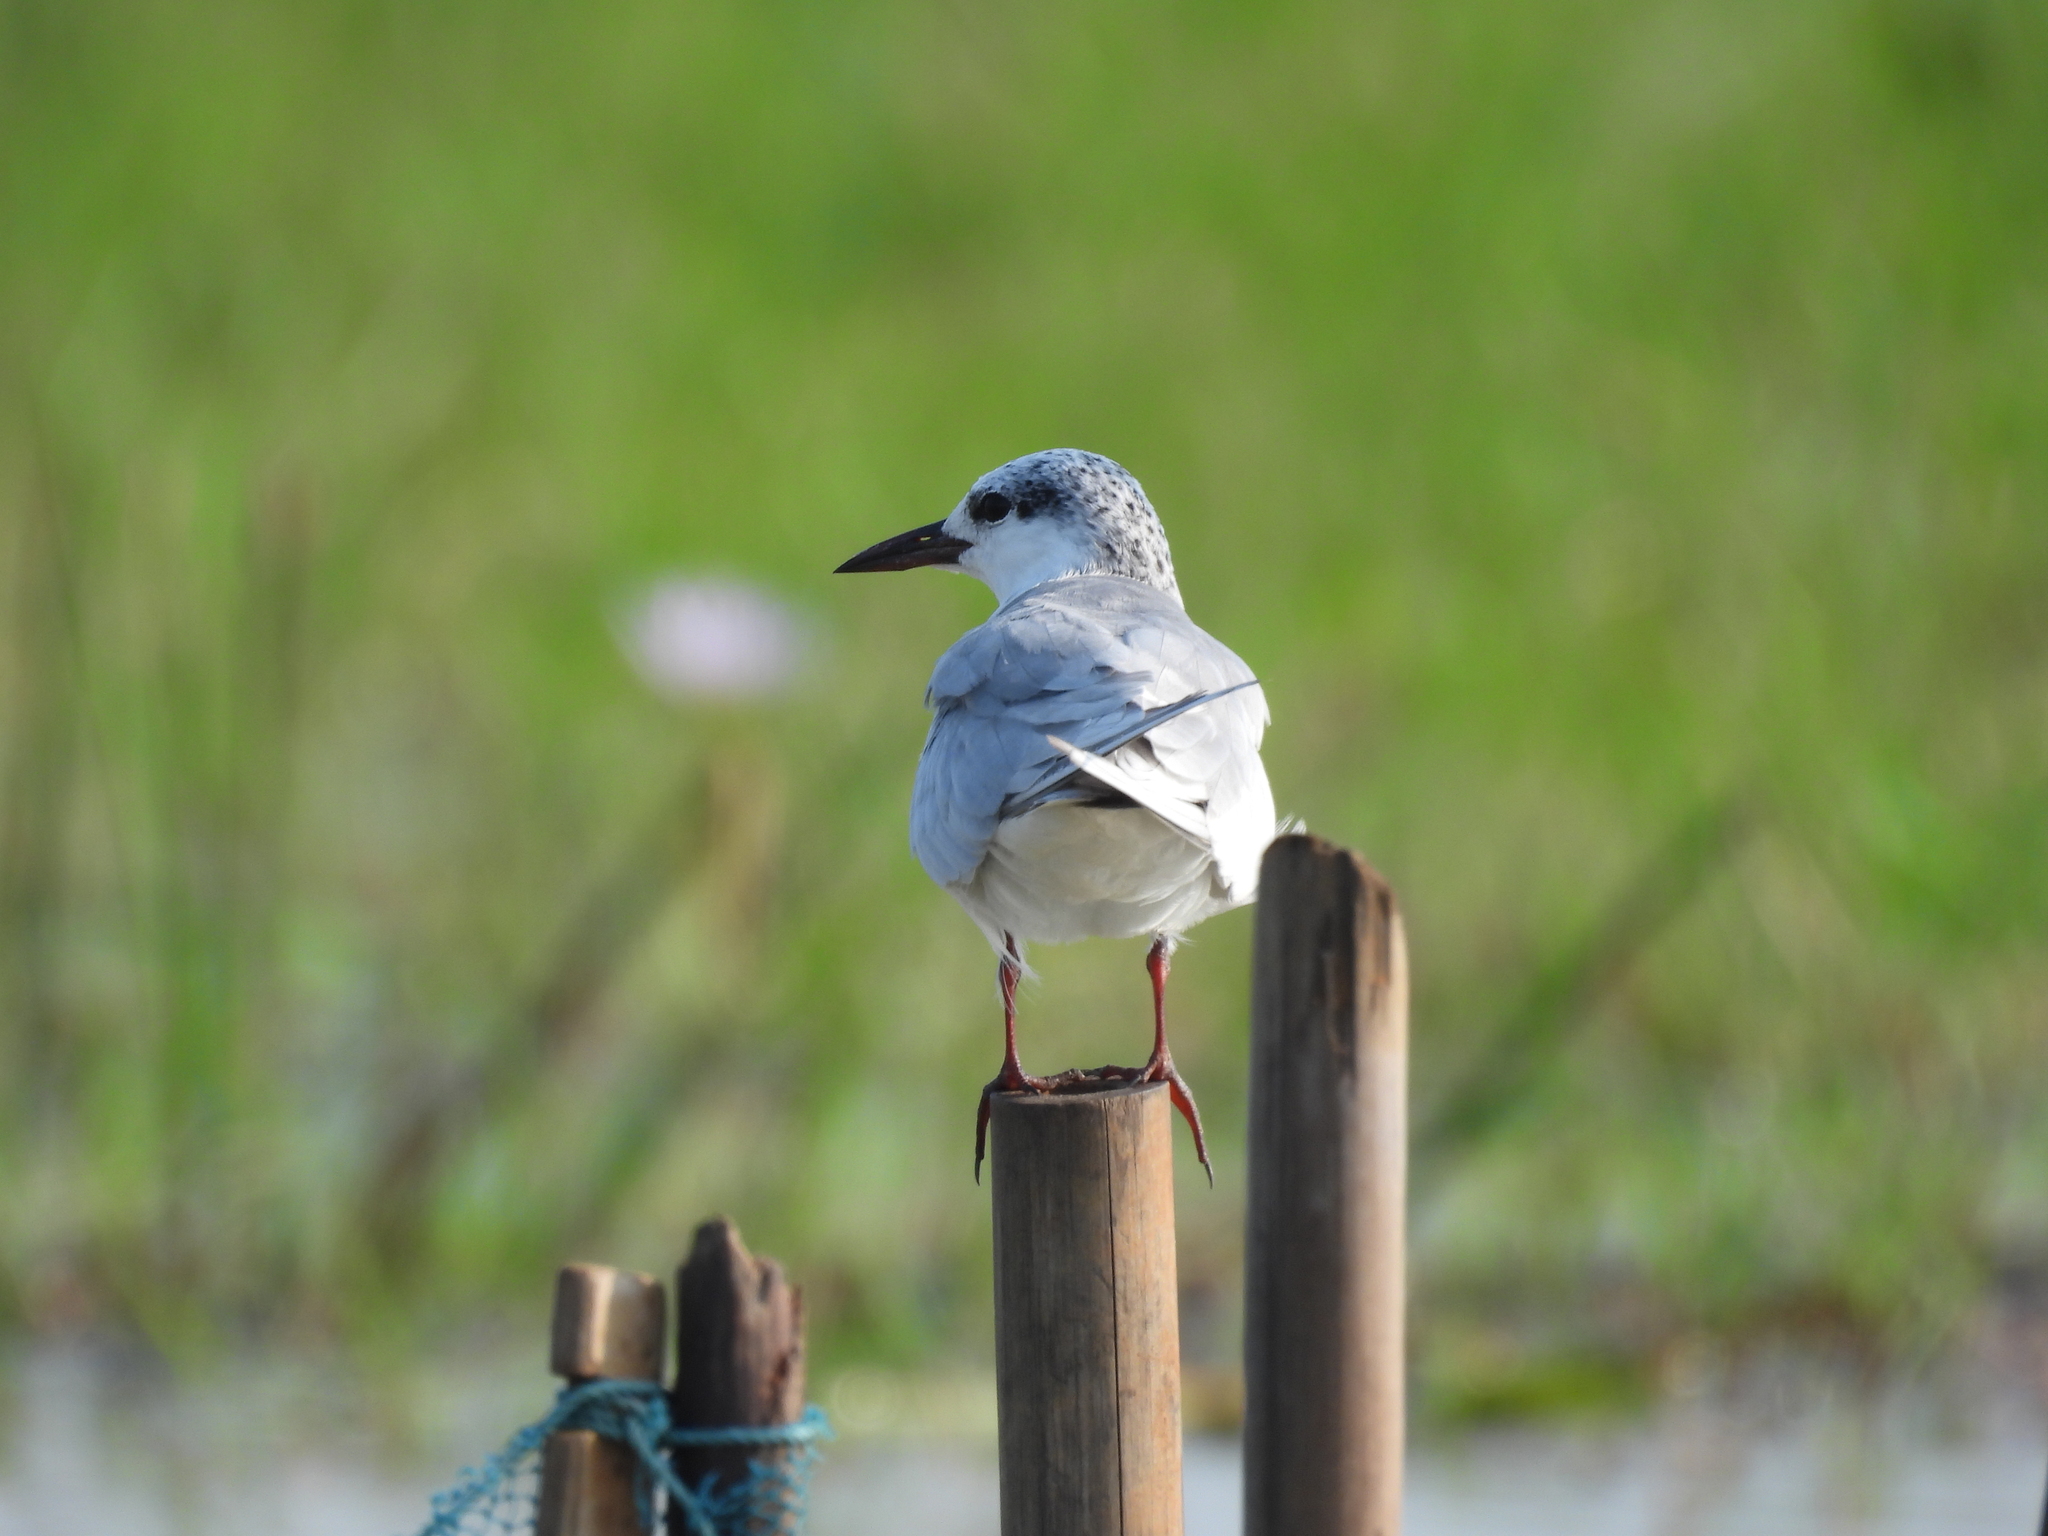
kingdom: Animalia
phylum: Chordata
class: Aves
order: Charadriiformes
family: Laridae
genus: Chlidonias
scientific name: Chlidonias hybrida
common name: Whiskered tern
